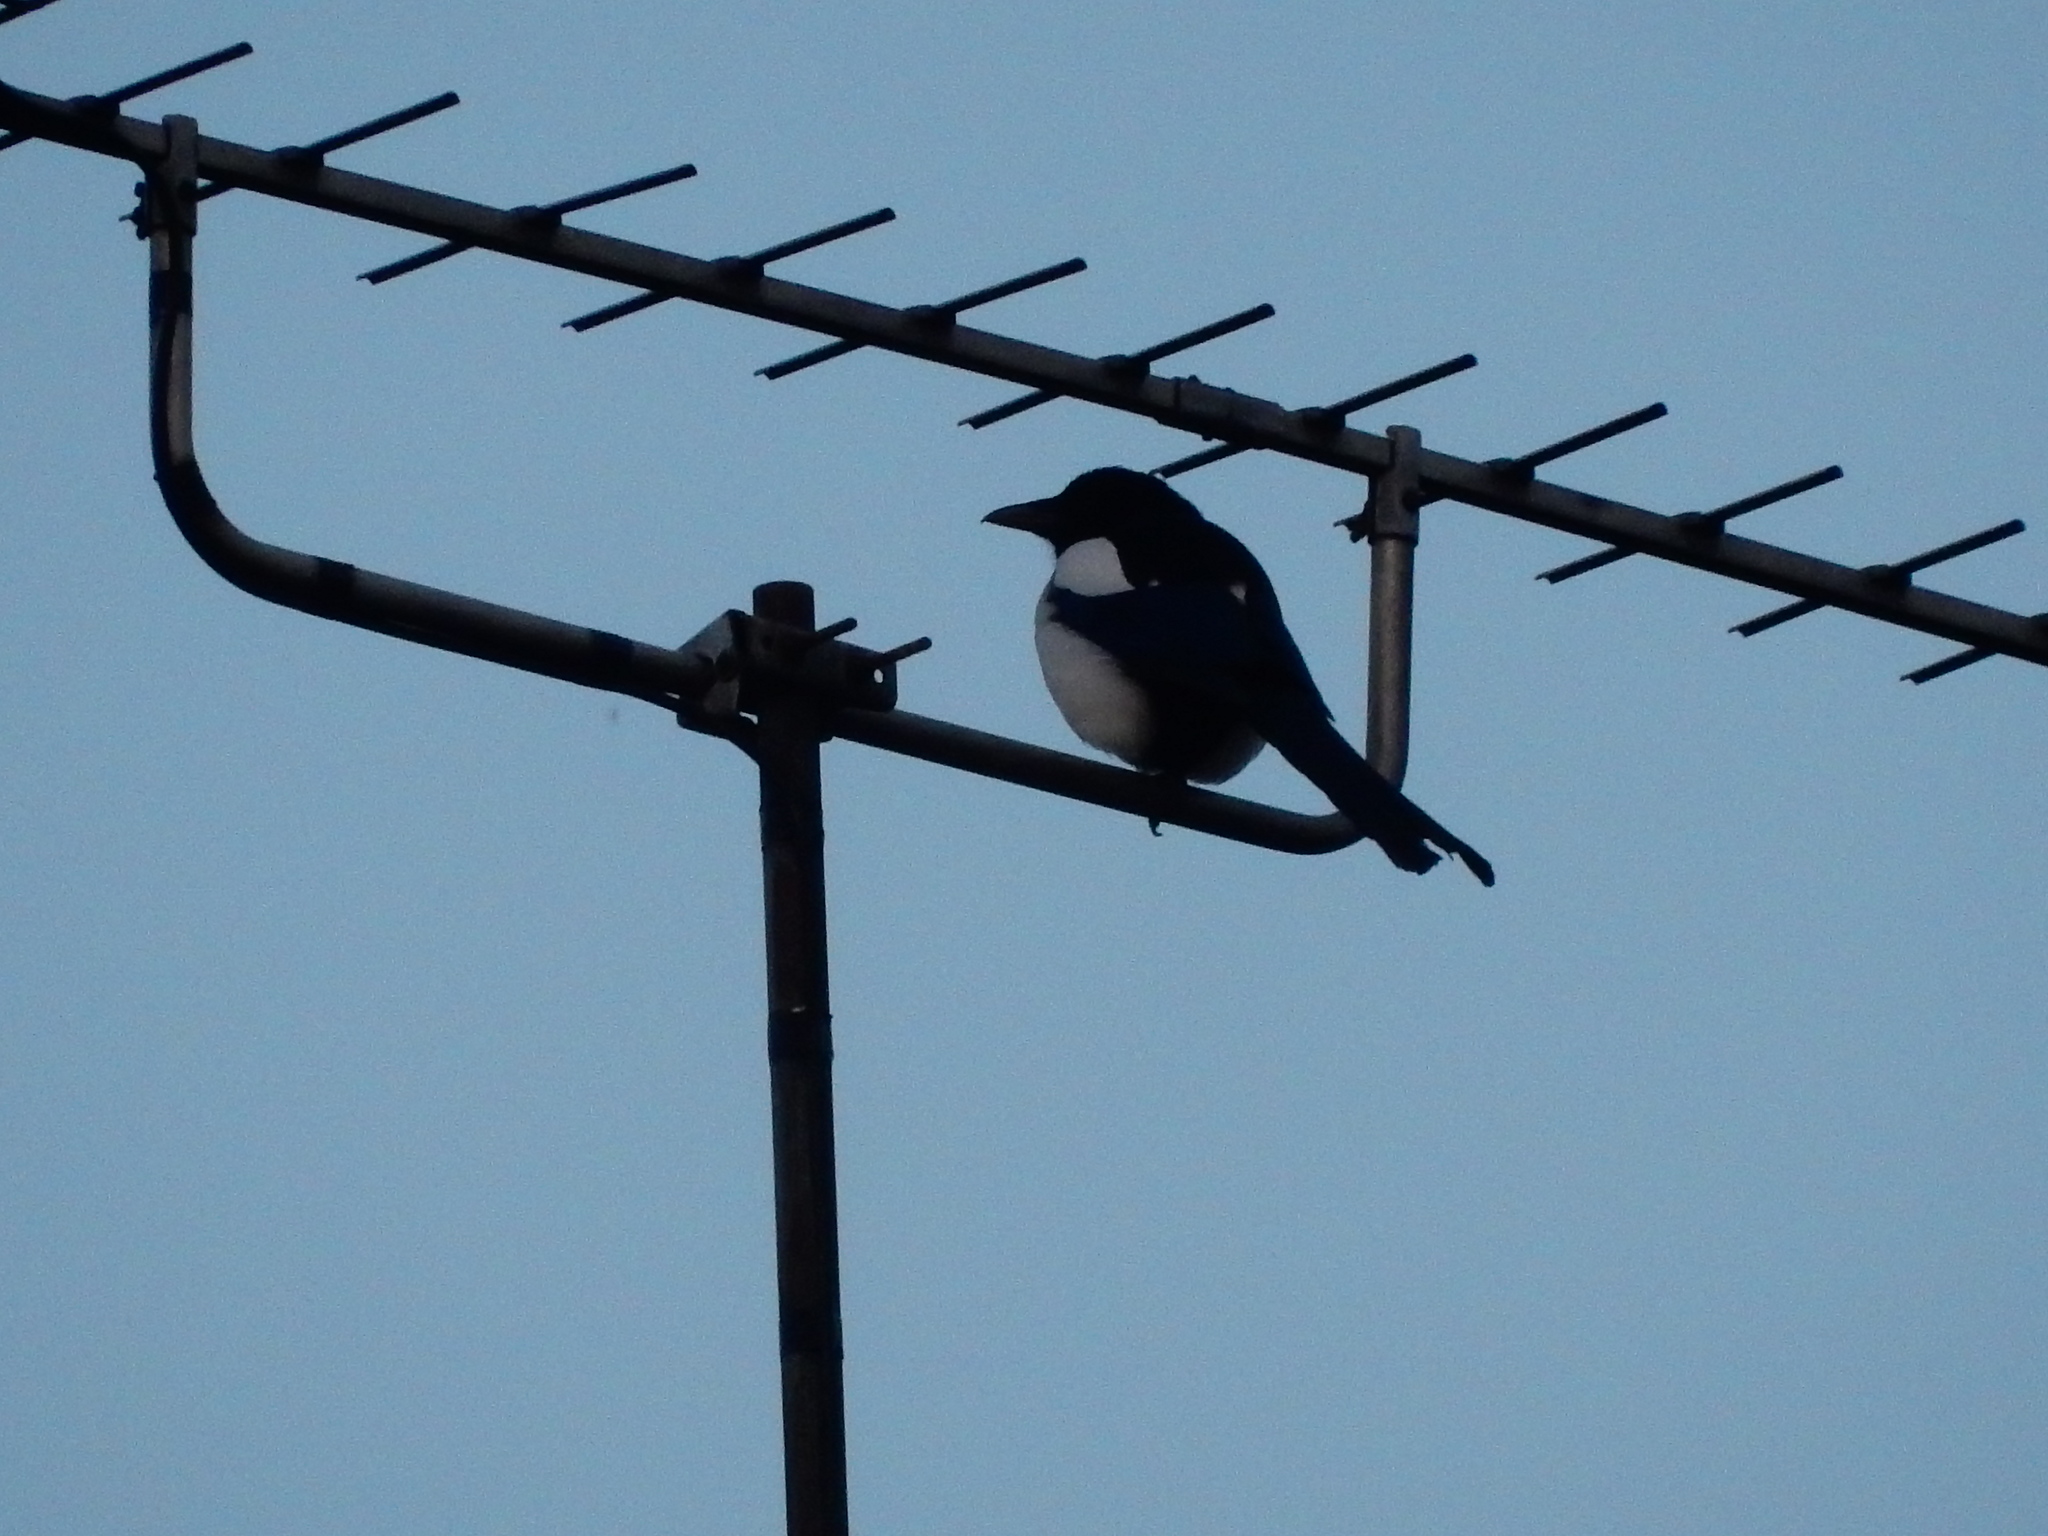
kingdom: Animalia
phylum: Chordata
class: Aves
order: Passeriformes
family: Corvidae
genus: Pica
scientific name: Pica pica
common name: Eurasian magpie
